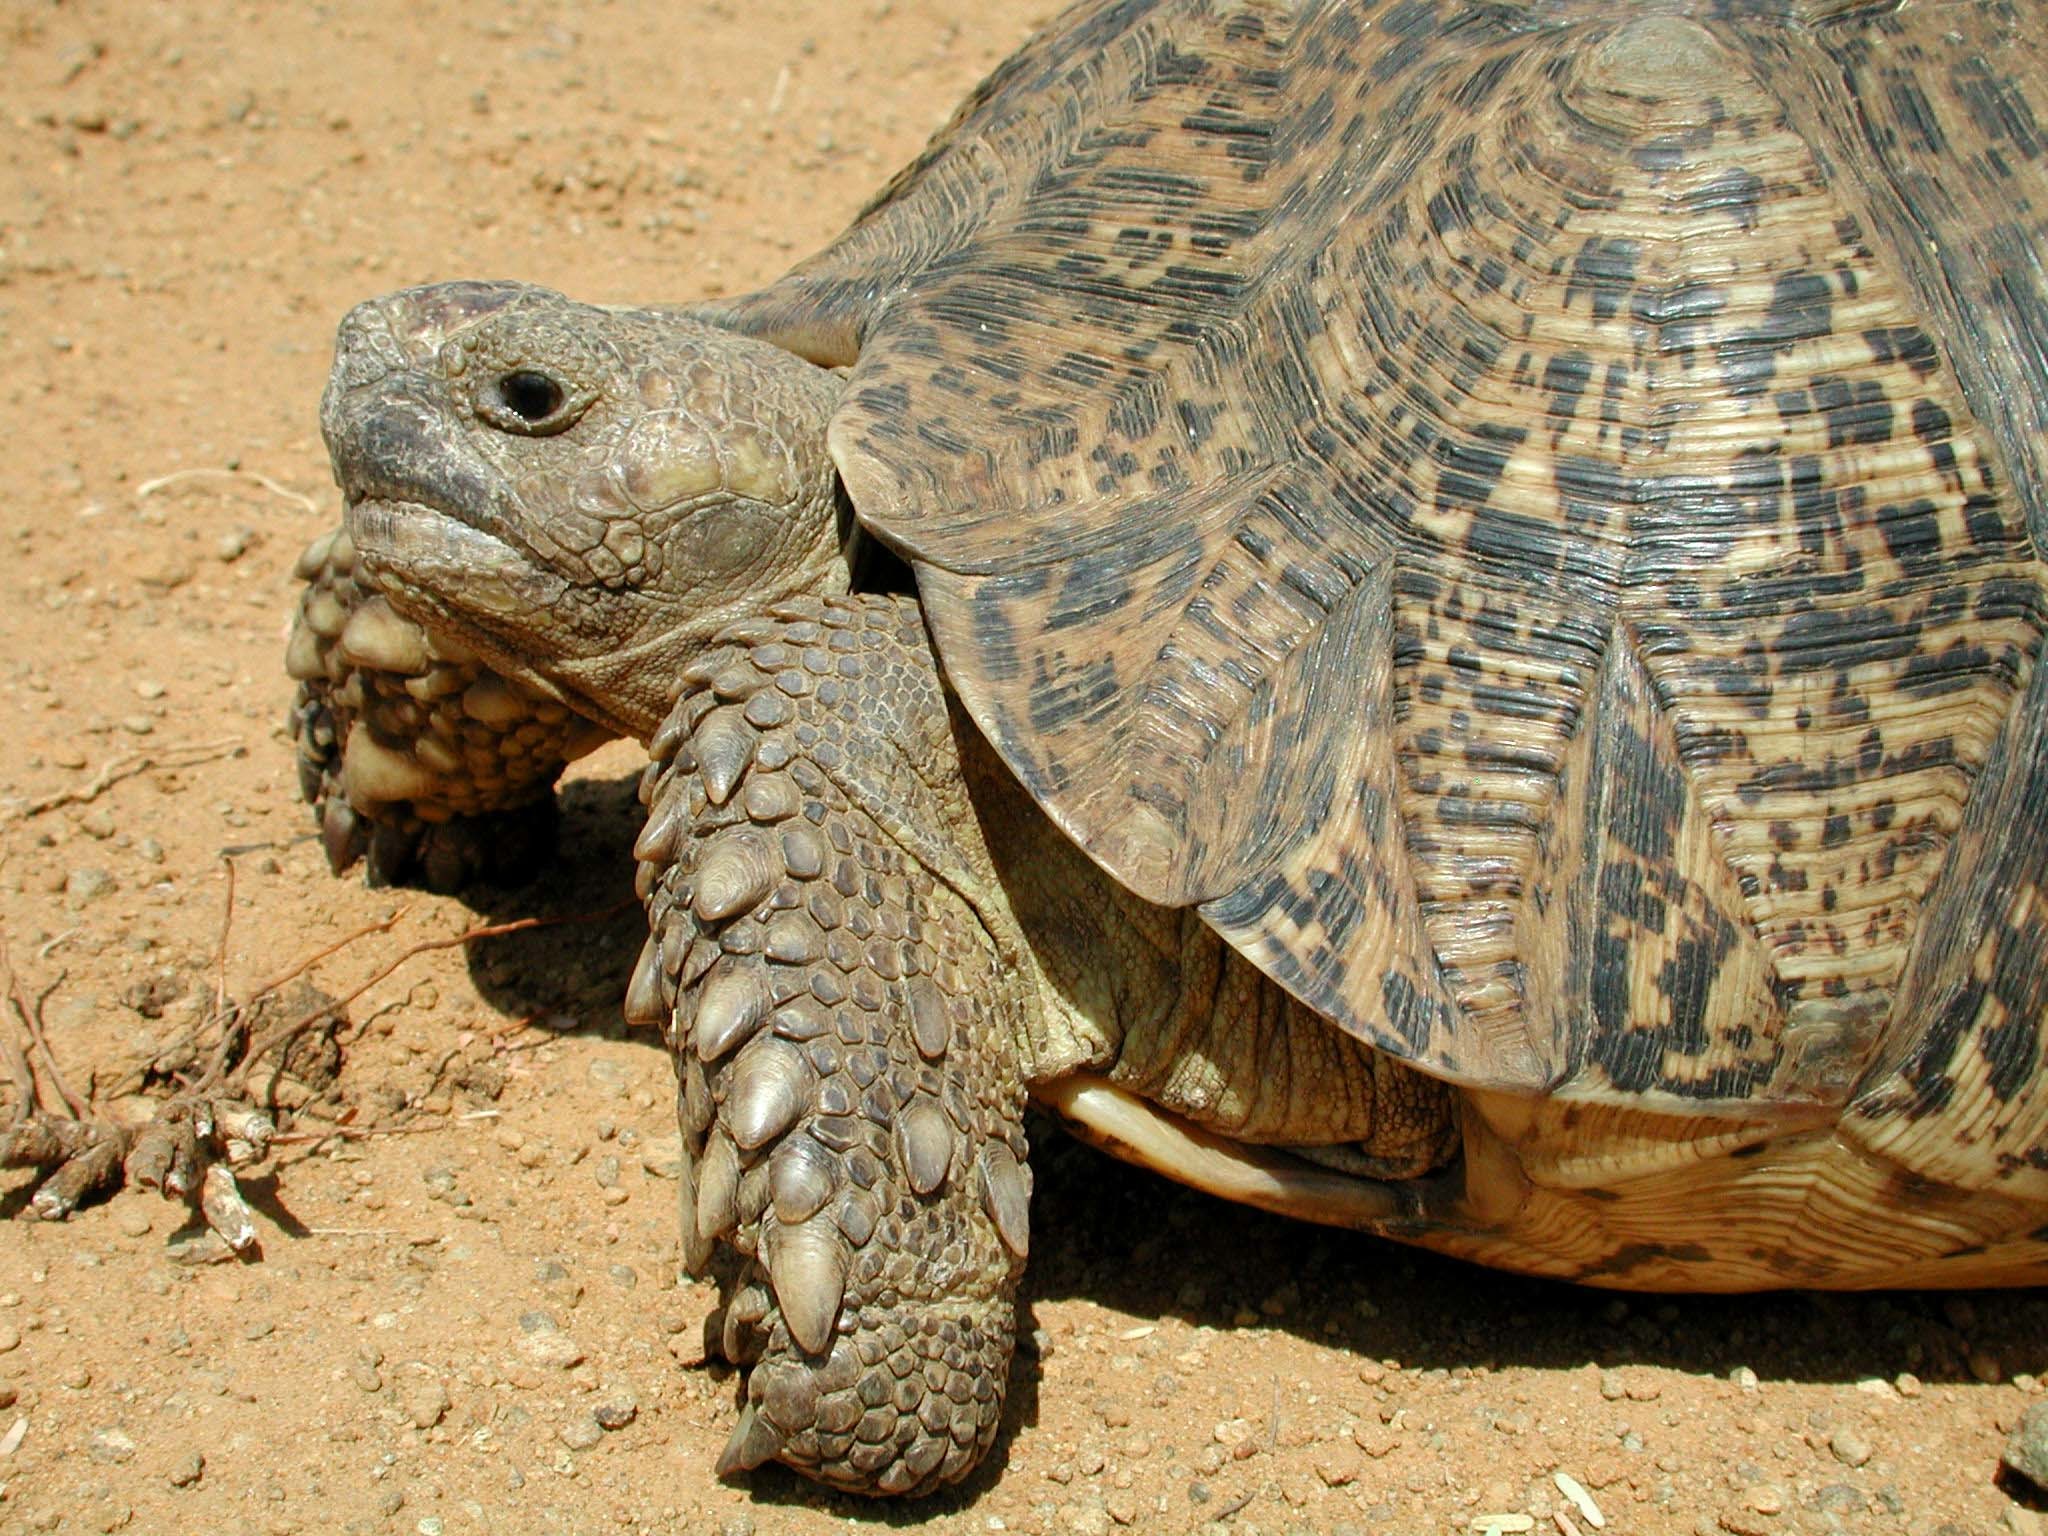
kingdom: Animalia
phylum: Chordata
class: Testudines
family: Testudinidae
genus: Stigmochelys
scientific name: Stigmochelys pardalis
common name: Leopard tortoise
